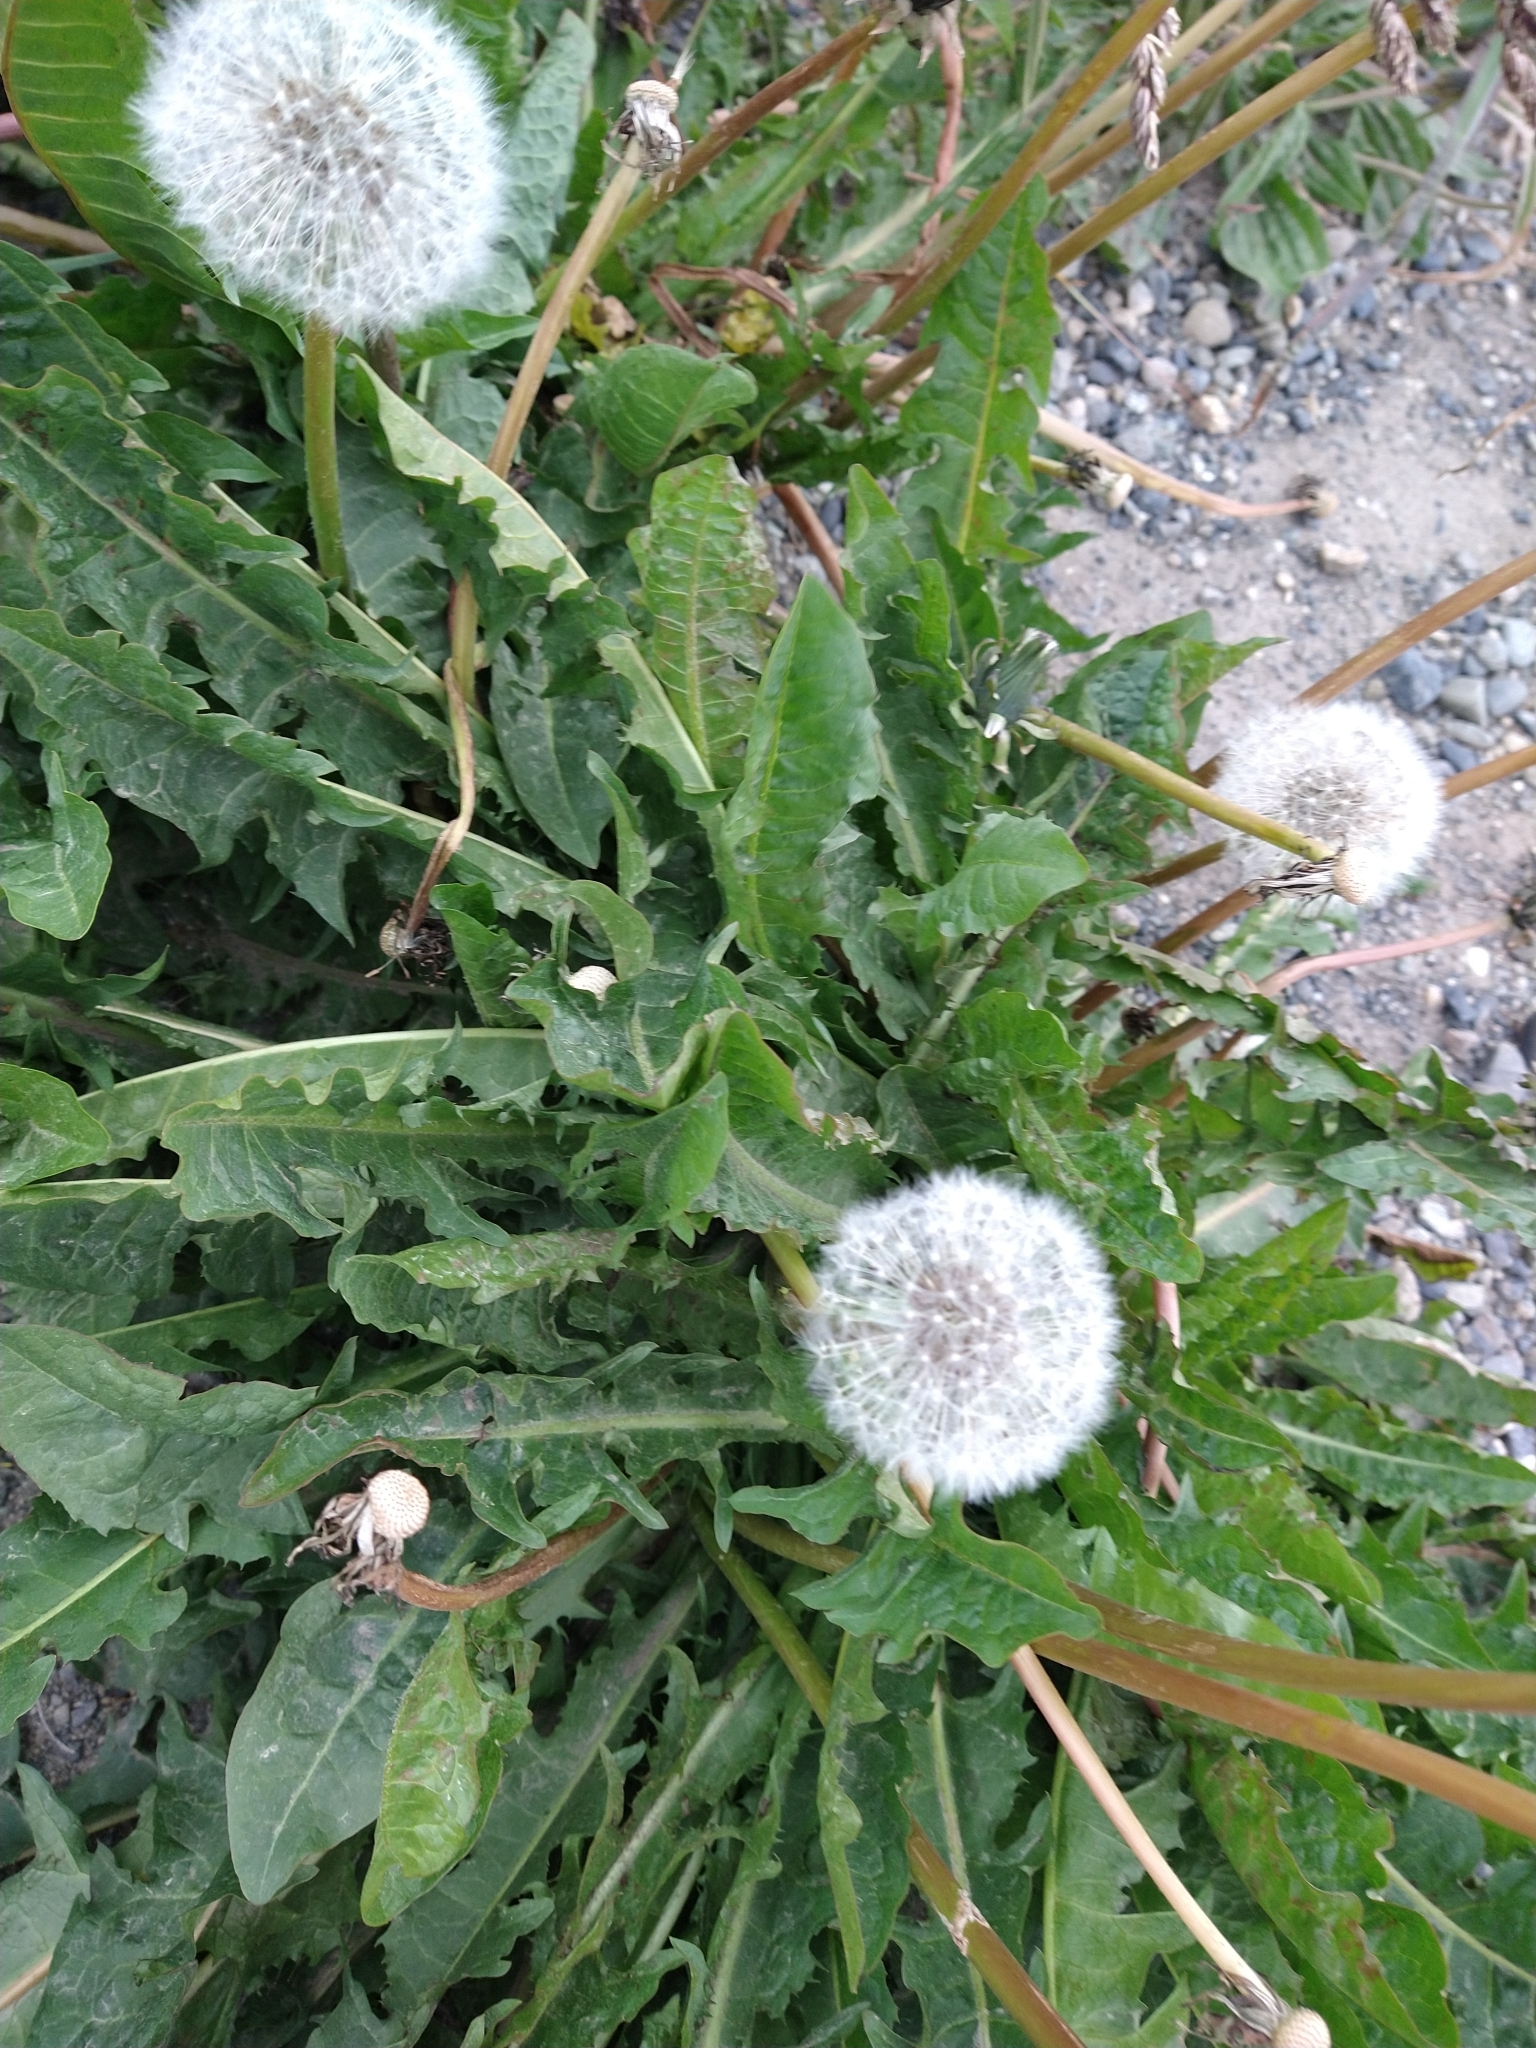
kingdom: Plantae
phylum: Tracheophyta
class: Magnoliopsida
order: Asterales
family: Asteraceae
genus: Taraxacum
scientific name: Taraxacum officinale
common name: Common dandelion
